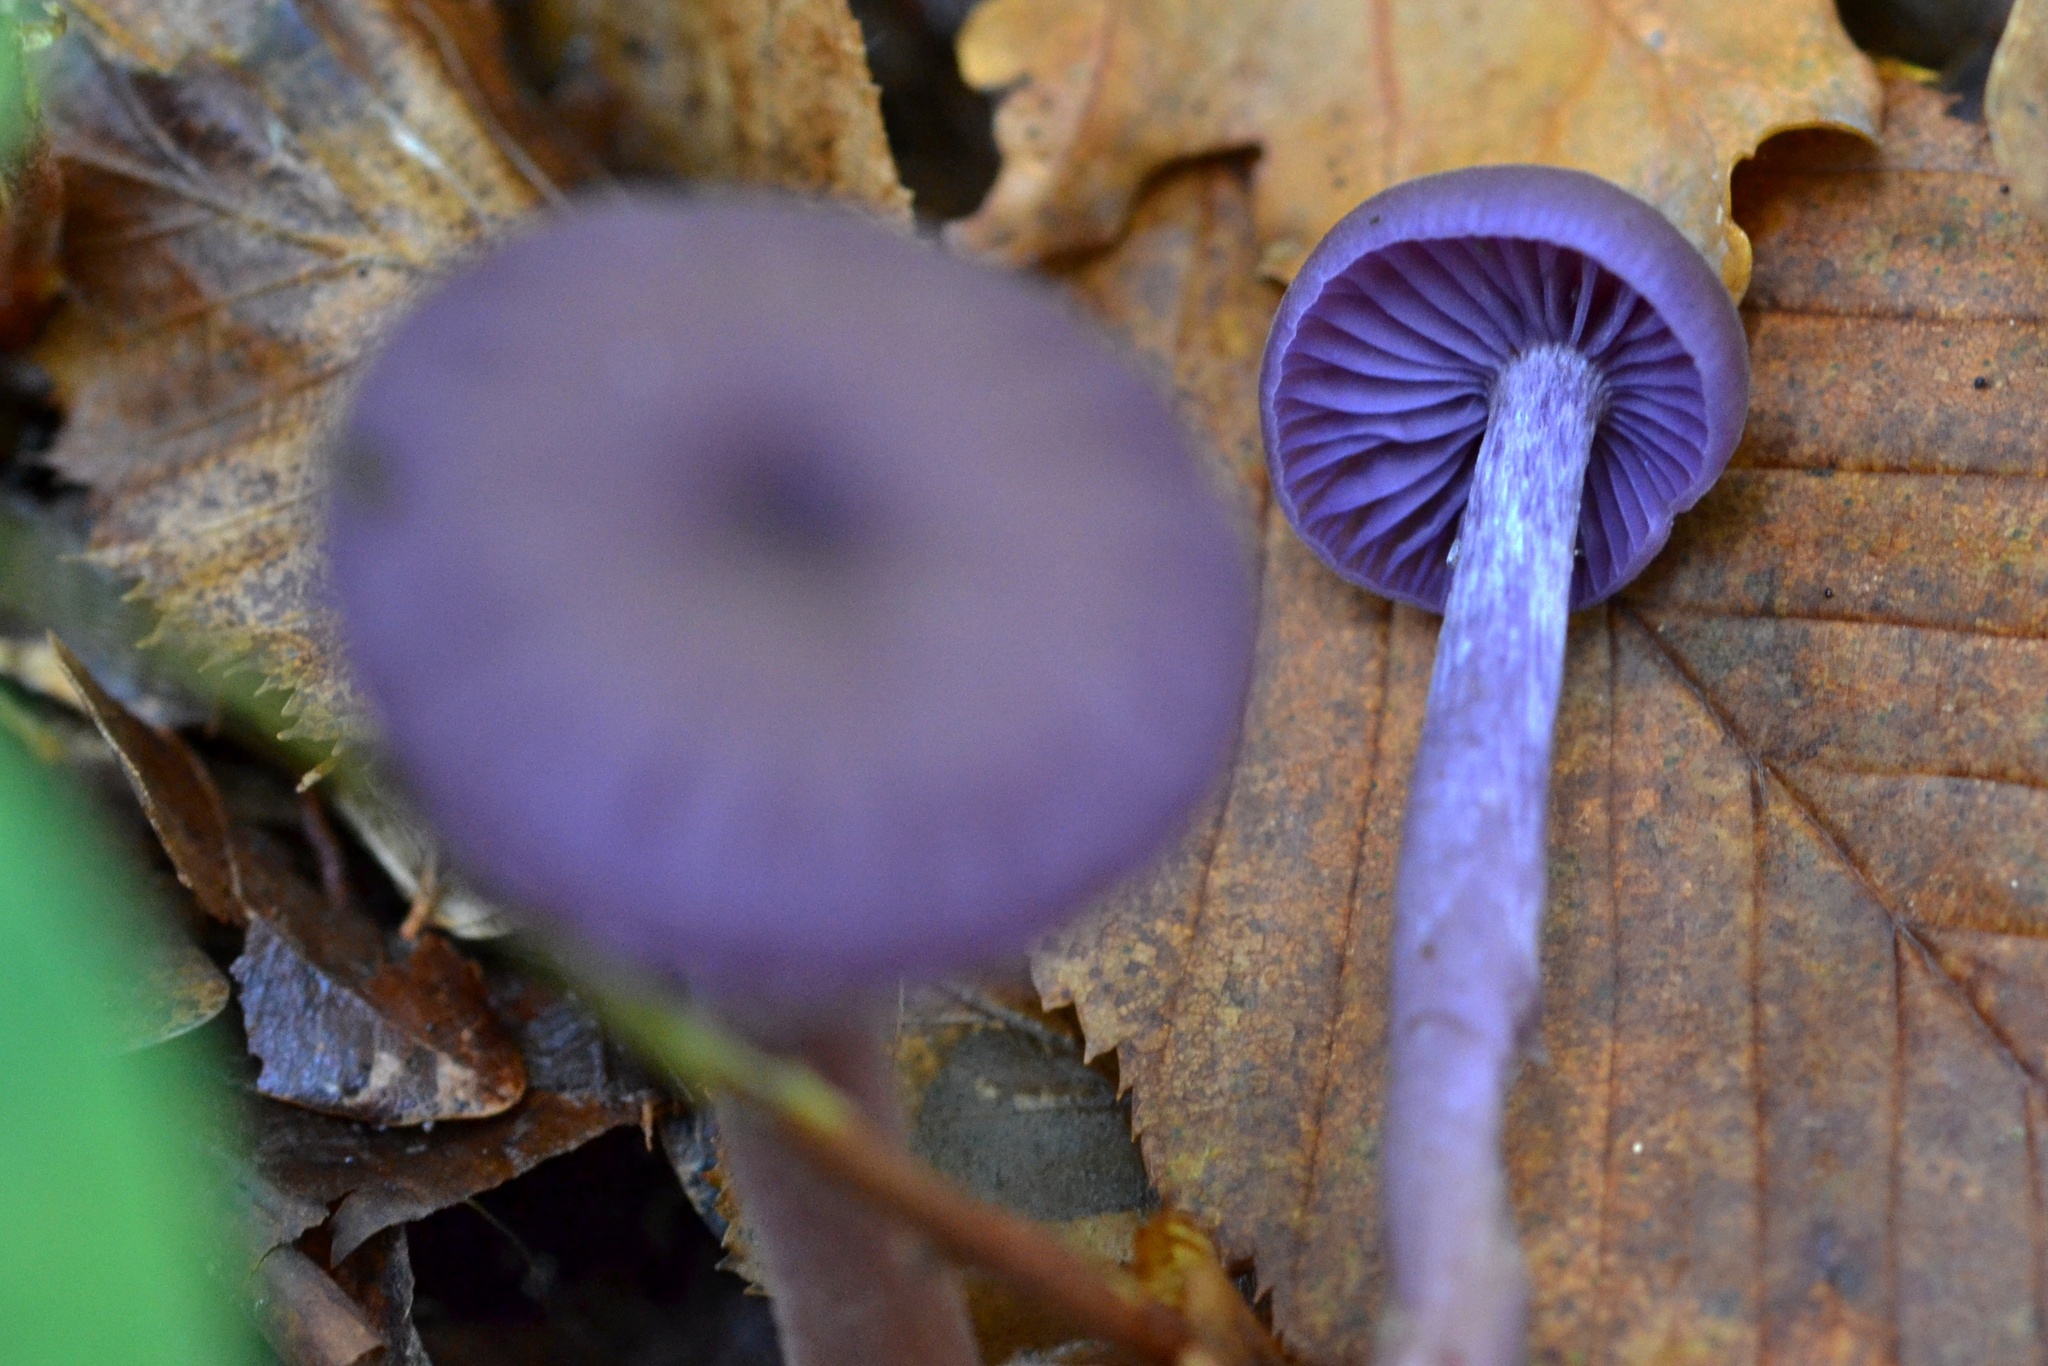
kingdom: Fungi
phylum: Basidiomycota
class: Agaricomycetes
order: Agaricales
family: Hydnangiaceae
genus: Laccaria
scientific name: Laccaria amethystina
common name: Amethyst deceiver
